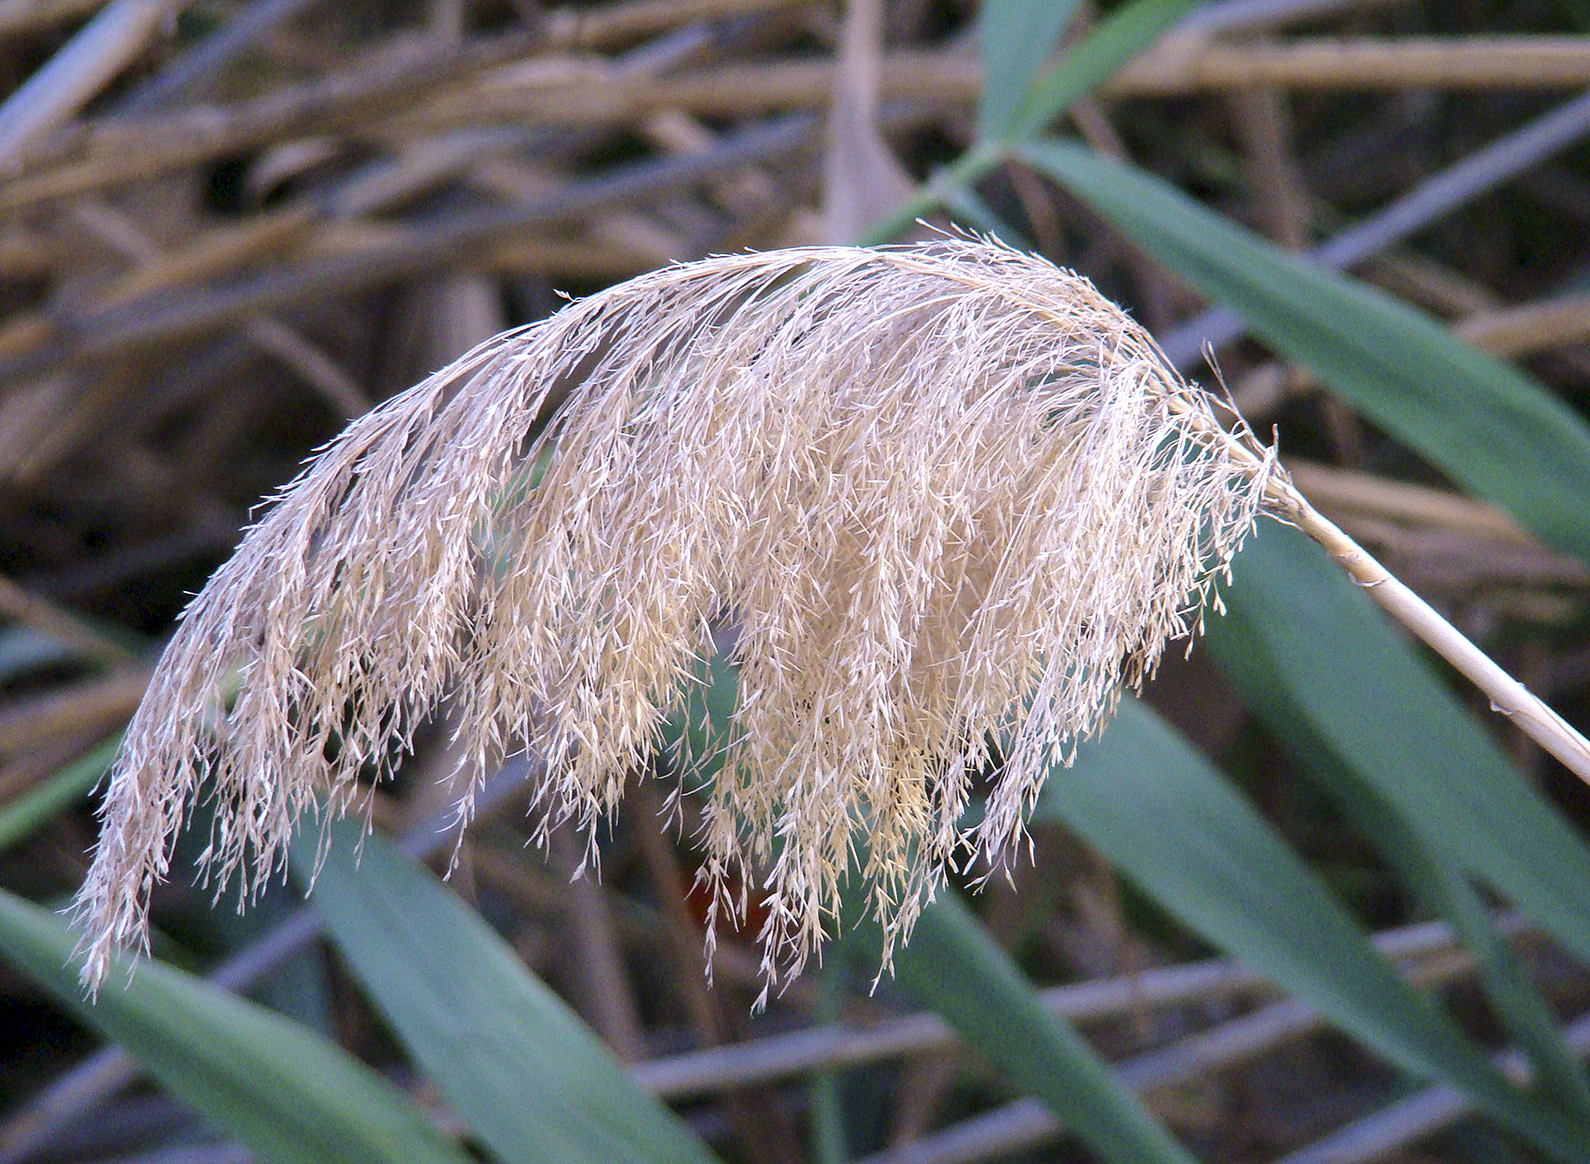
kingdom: Plantae
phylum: Tracheophyta
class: Liliopsida
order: Poales
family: Poaceae
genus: Phragmites
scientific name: Phragmites australis
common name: Common reed
